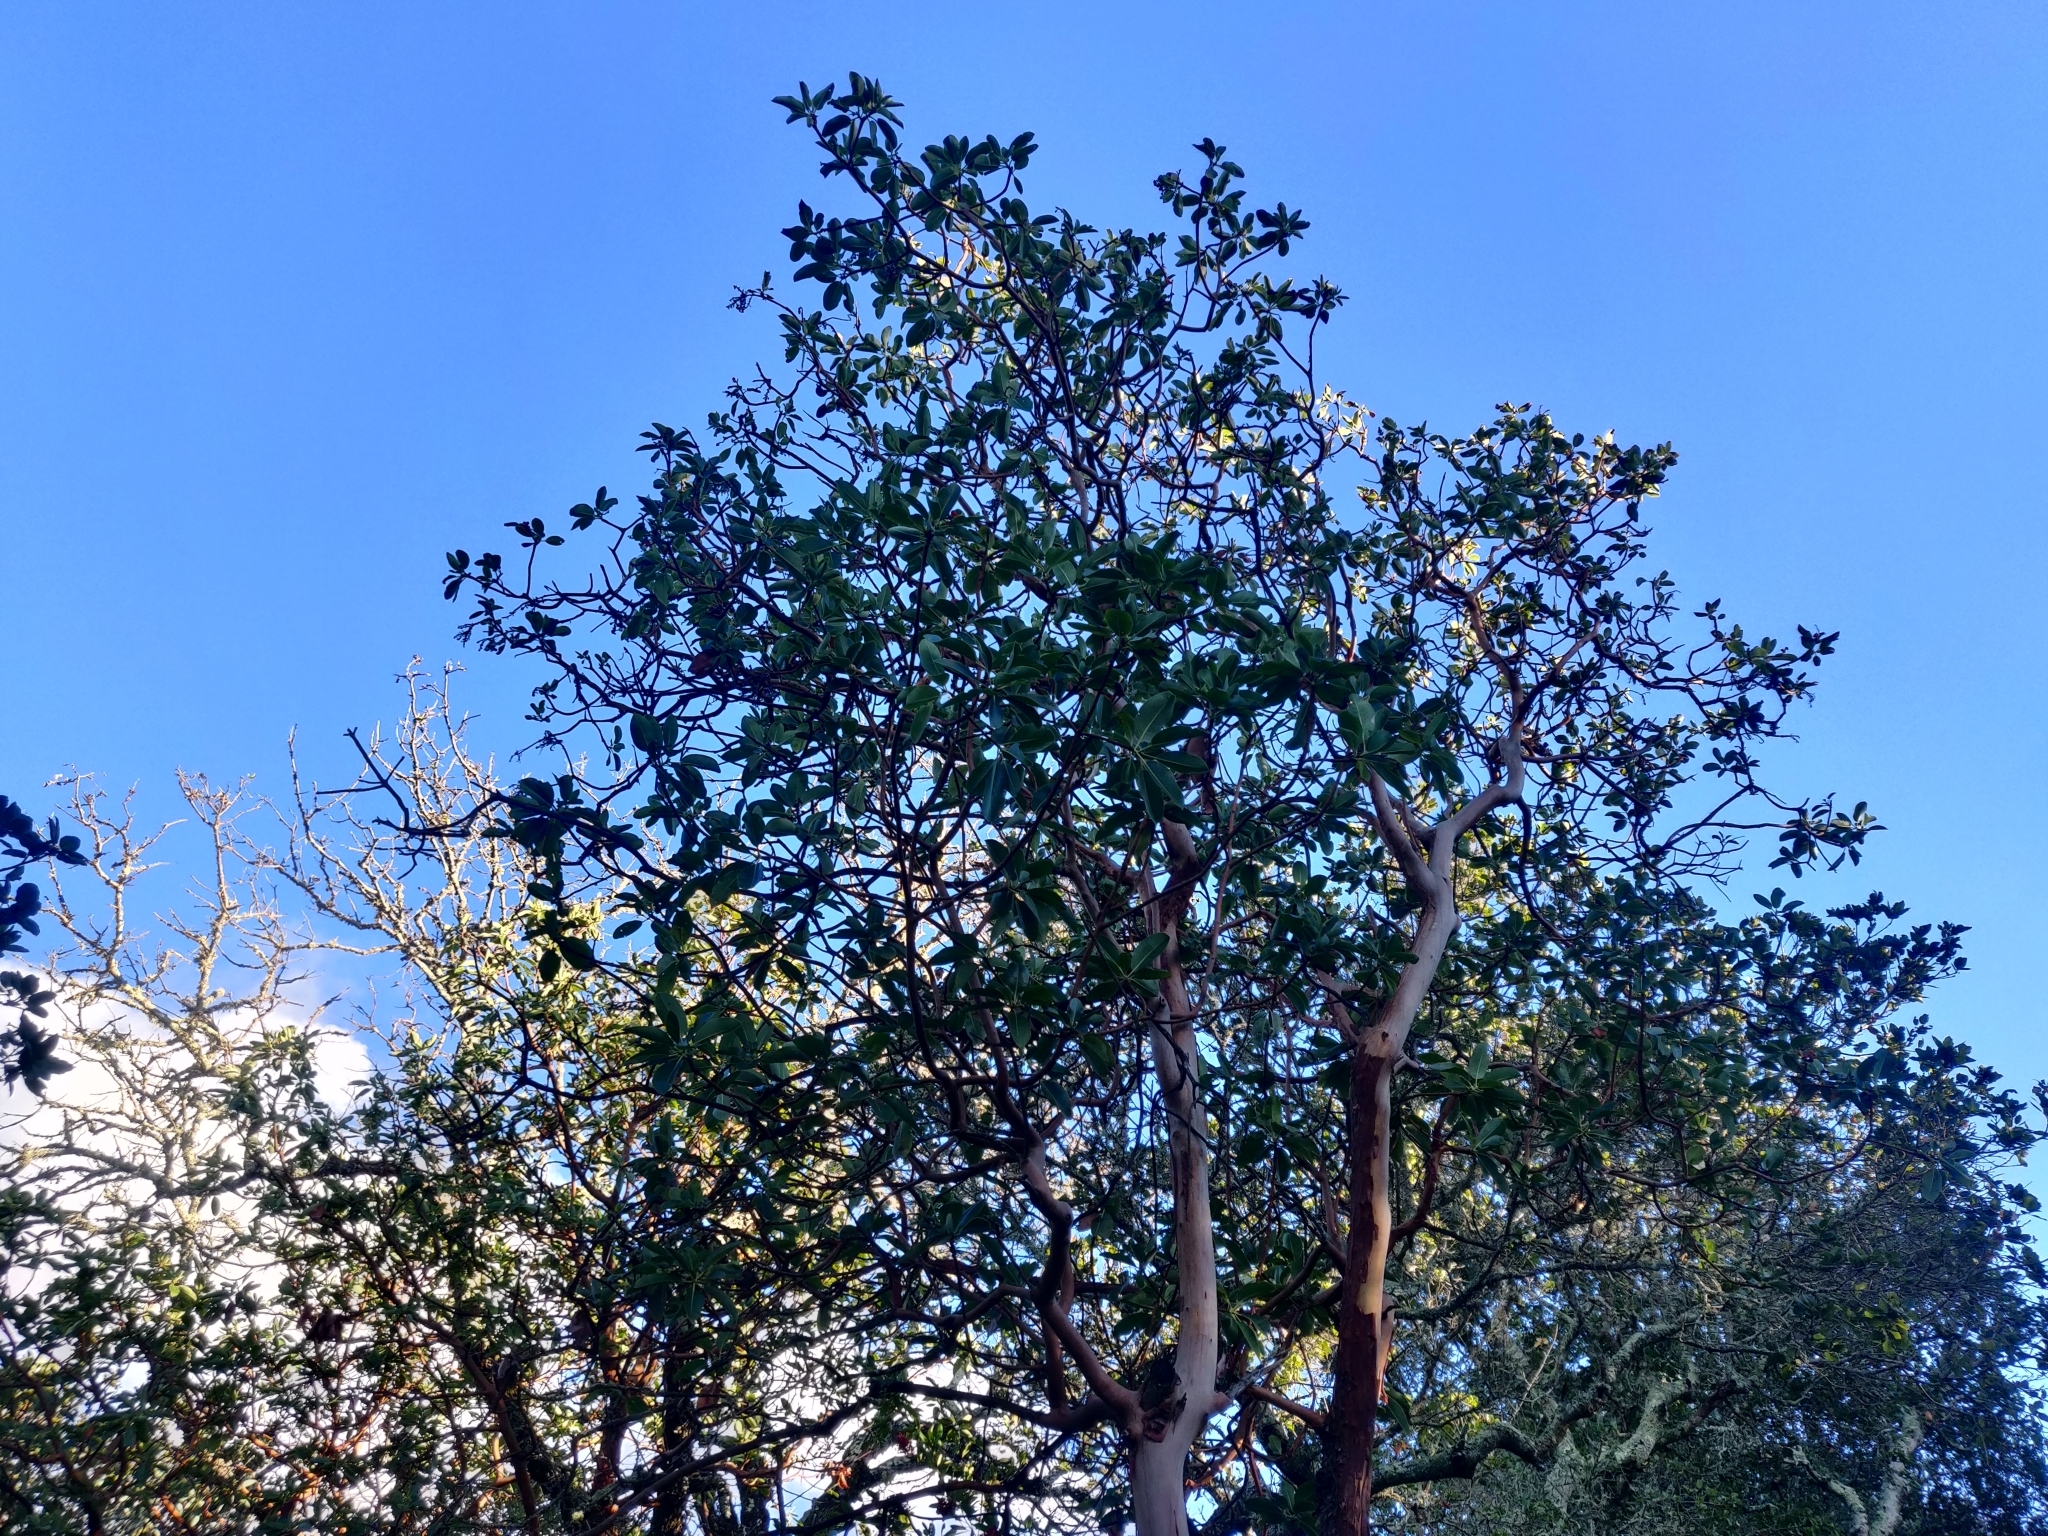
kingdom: Plantae
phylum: Tracheophyta
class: Magnoliopsida
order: Ericales
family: Ericaceae
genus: Arbutus
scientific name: Arbutus menziesii
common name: Pacific madrone
